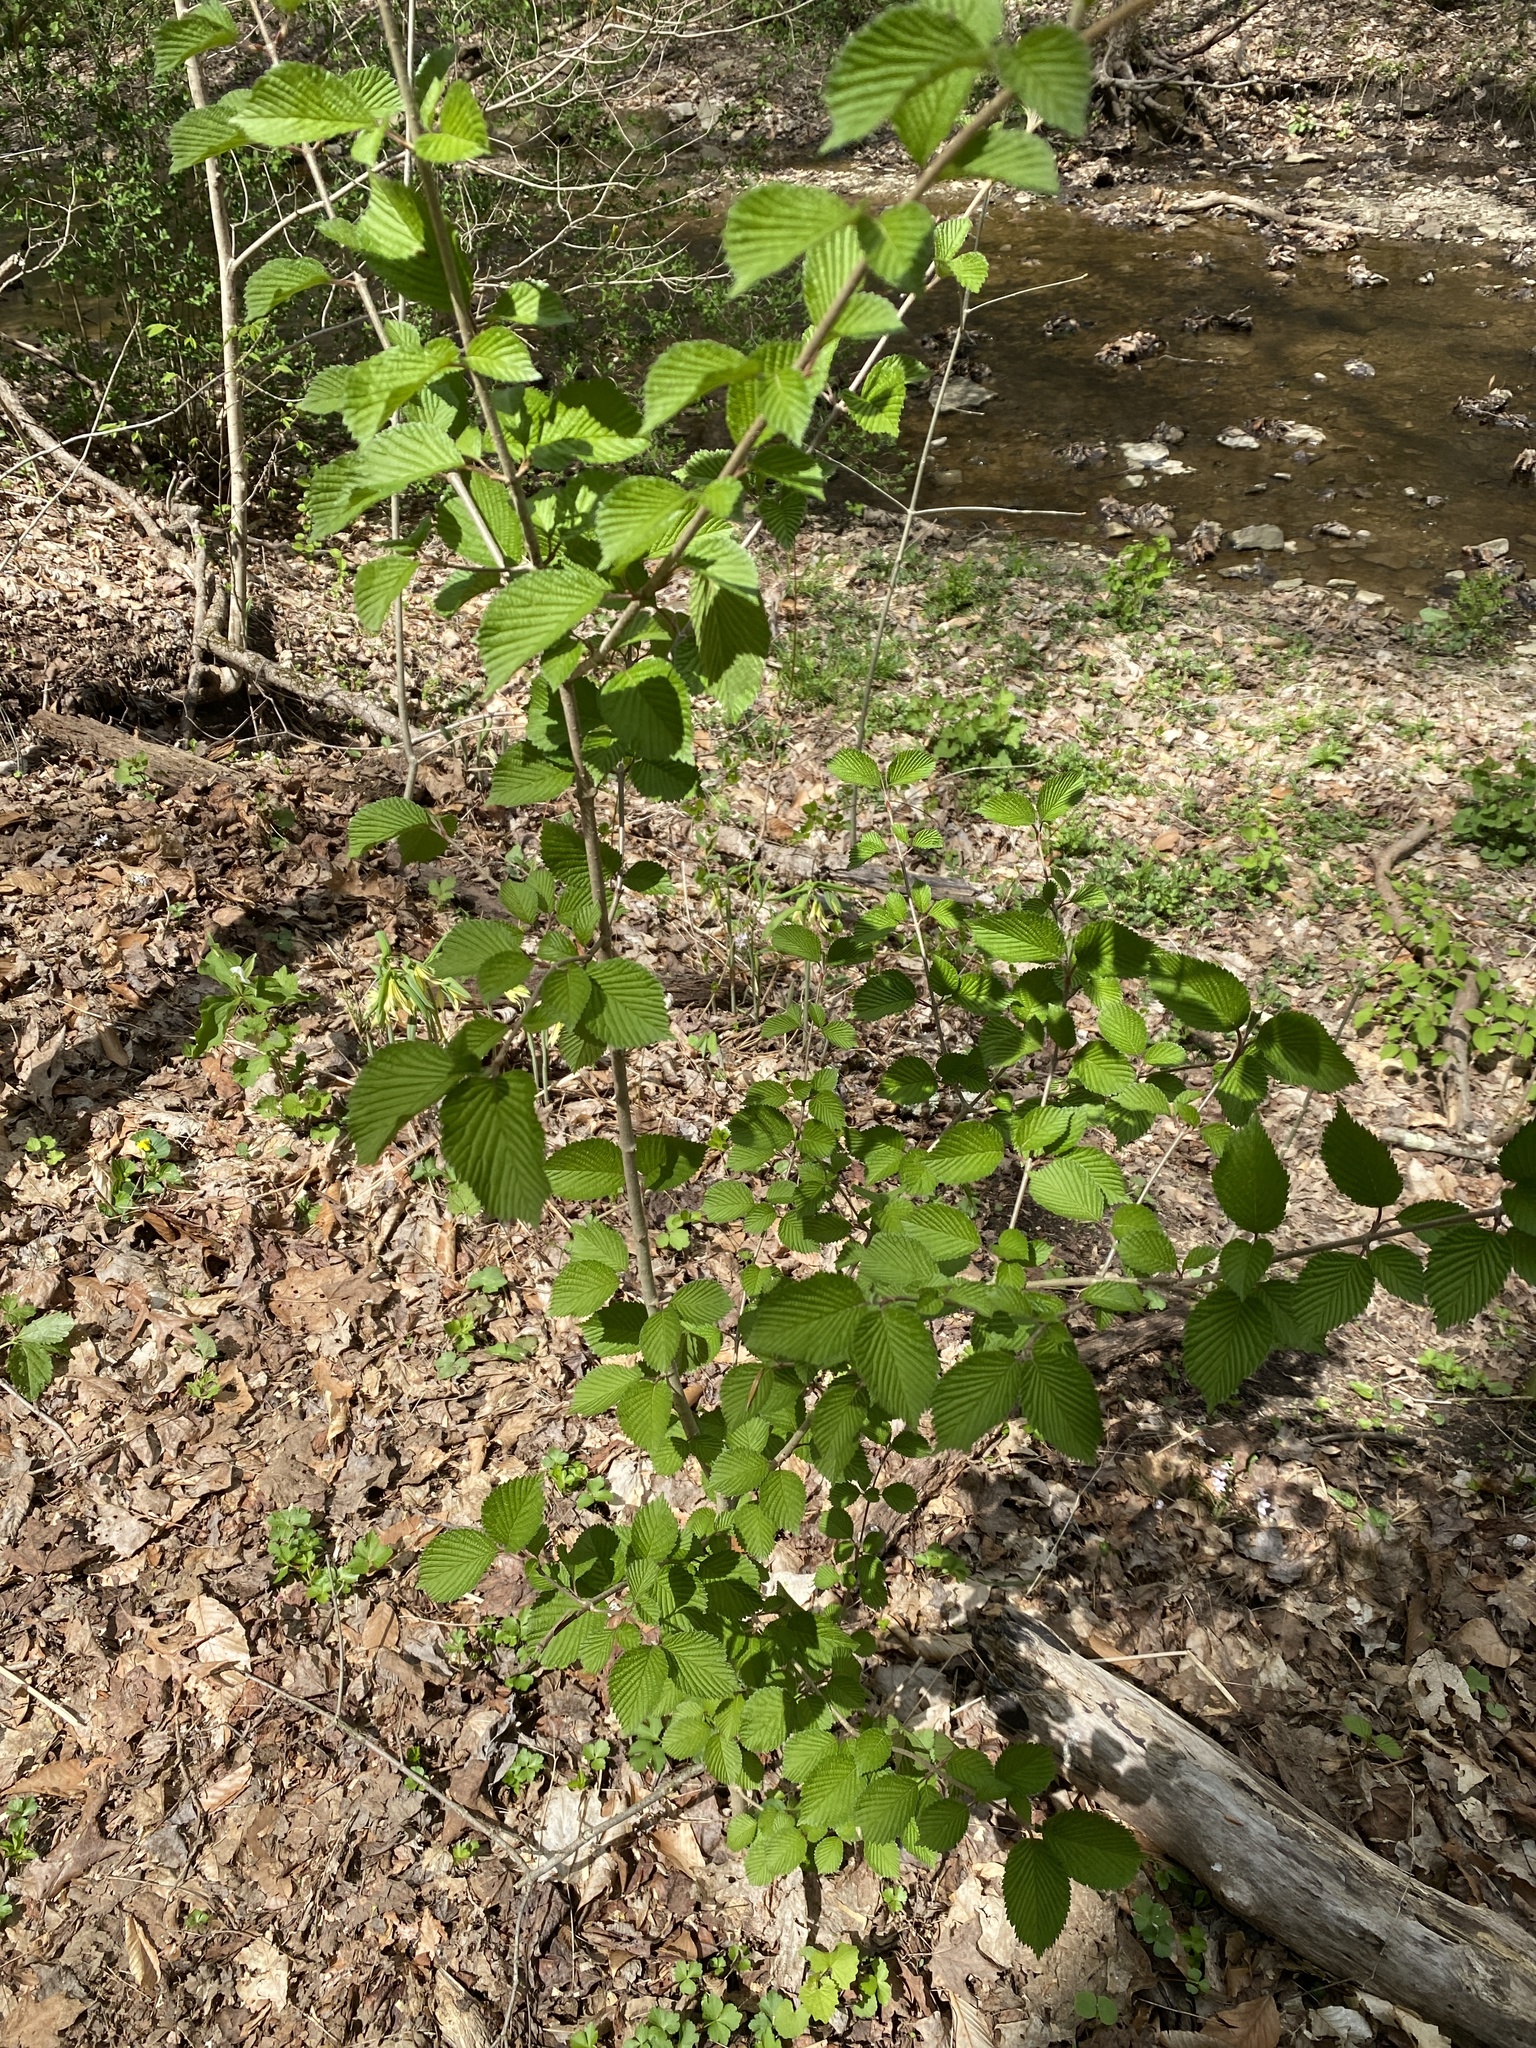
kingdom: Plantae
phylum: Tracheophyta
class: Magnoliopsida
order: Dipsacales
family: Viburnaceae
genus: Viburnum
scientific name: Viburnum plicatum
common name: Japanese snowball
